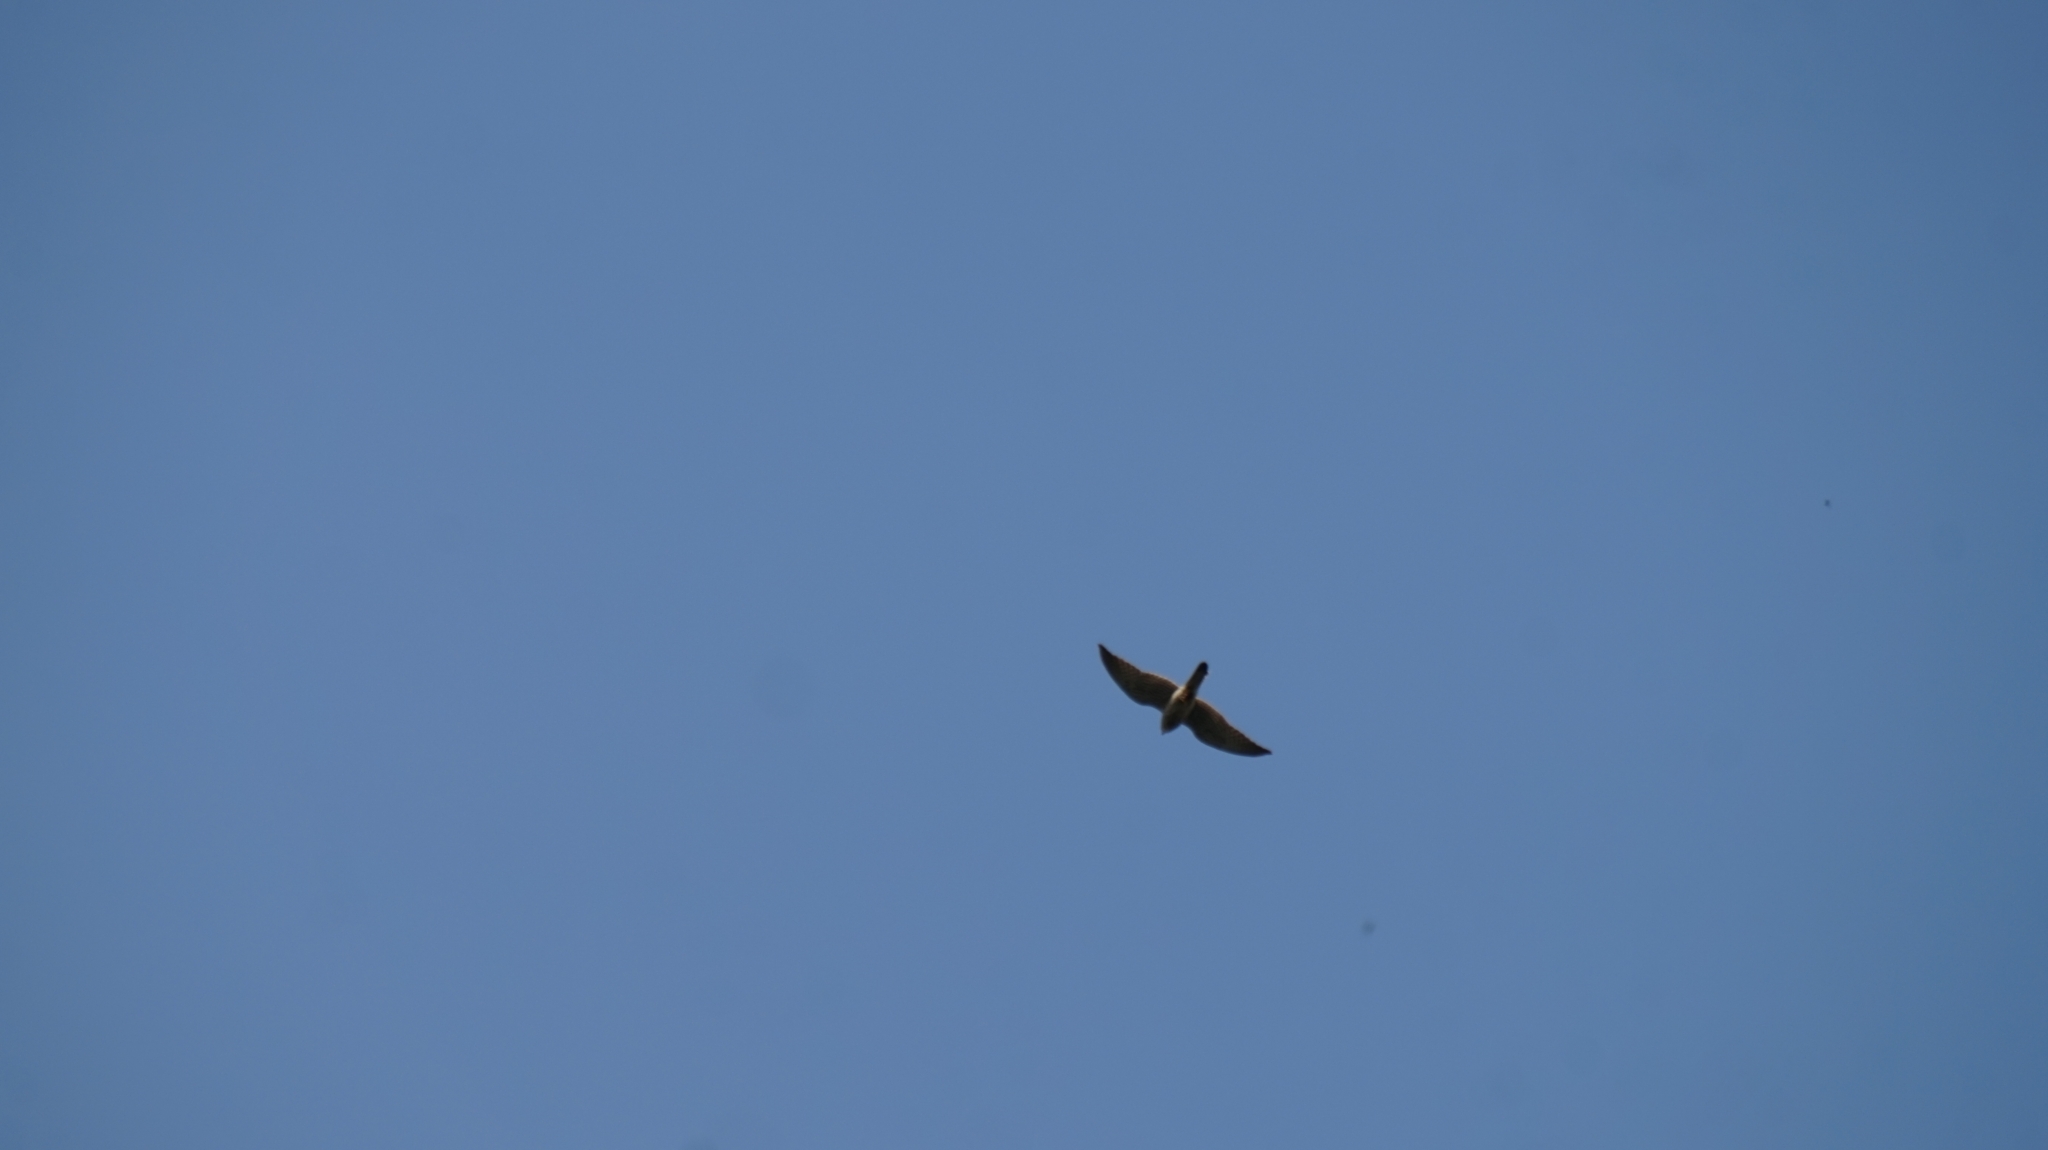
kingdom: Animalia
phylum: Chordata
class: Aves
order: Falconiformes
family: Falconidae
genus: Falco
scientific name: Falco tinnunculus
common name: Common kestrel
